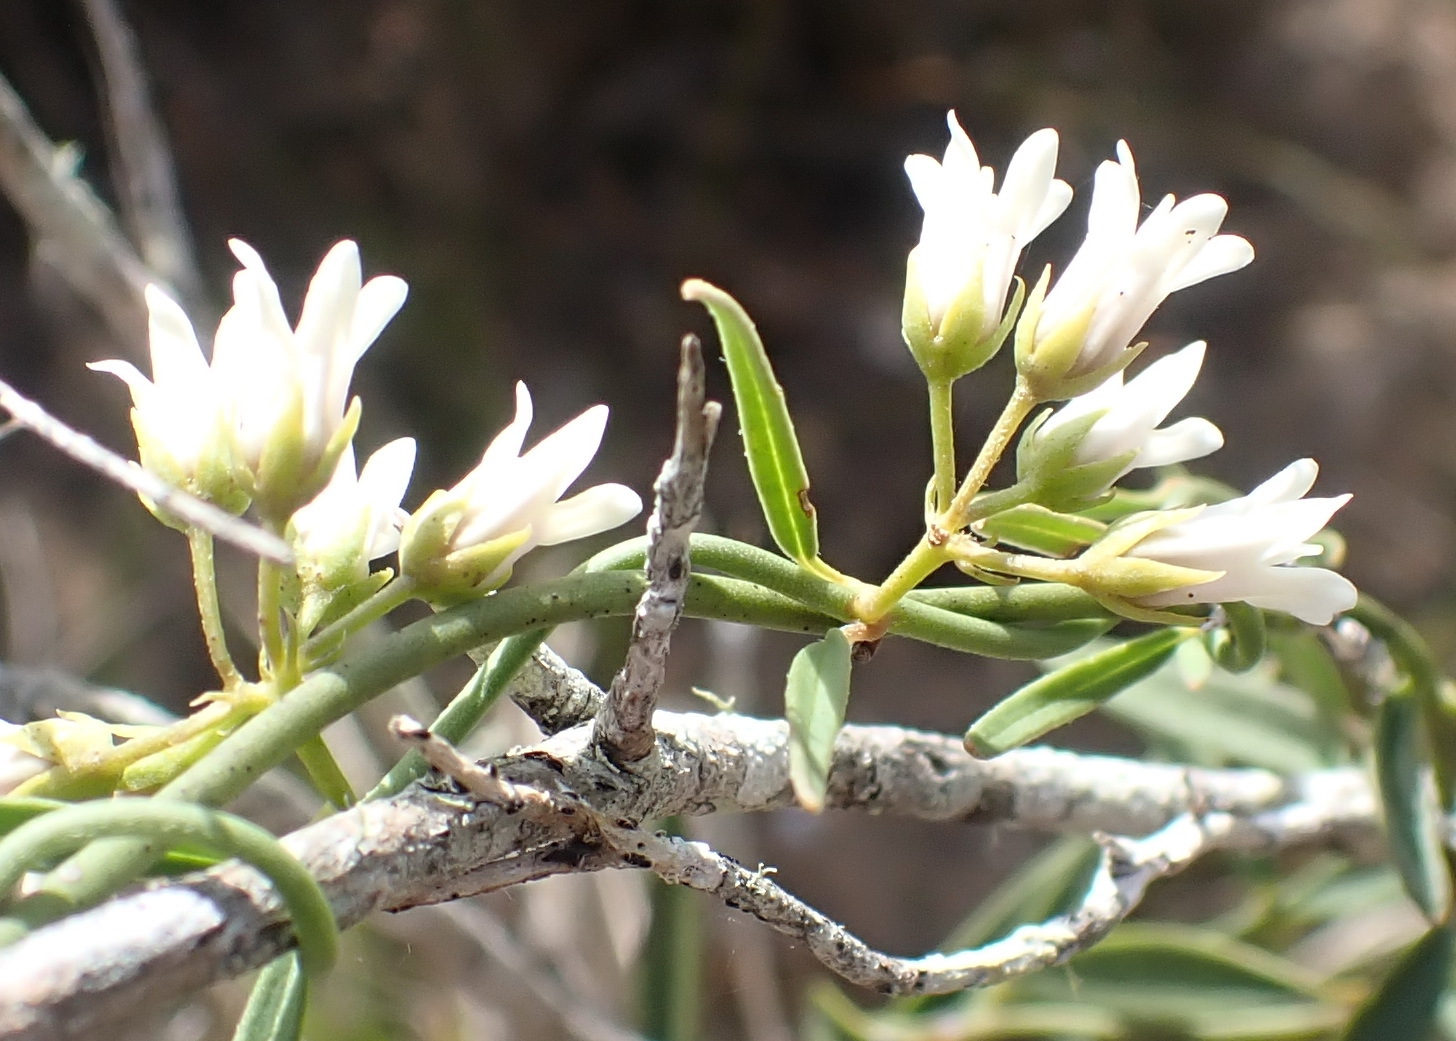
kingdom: Plantae
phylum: Tracheophyta
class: Magnoliopsida
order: Gentianales
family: Apocynaceae
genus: Astephanus
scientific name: Astephanus triflorus
